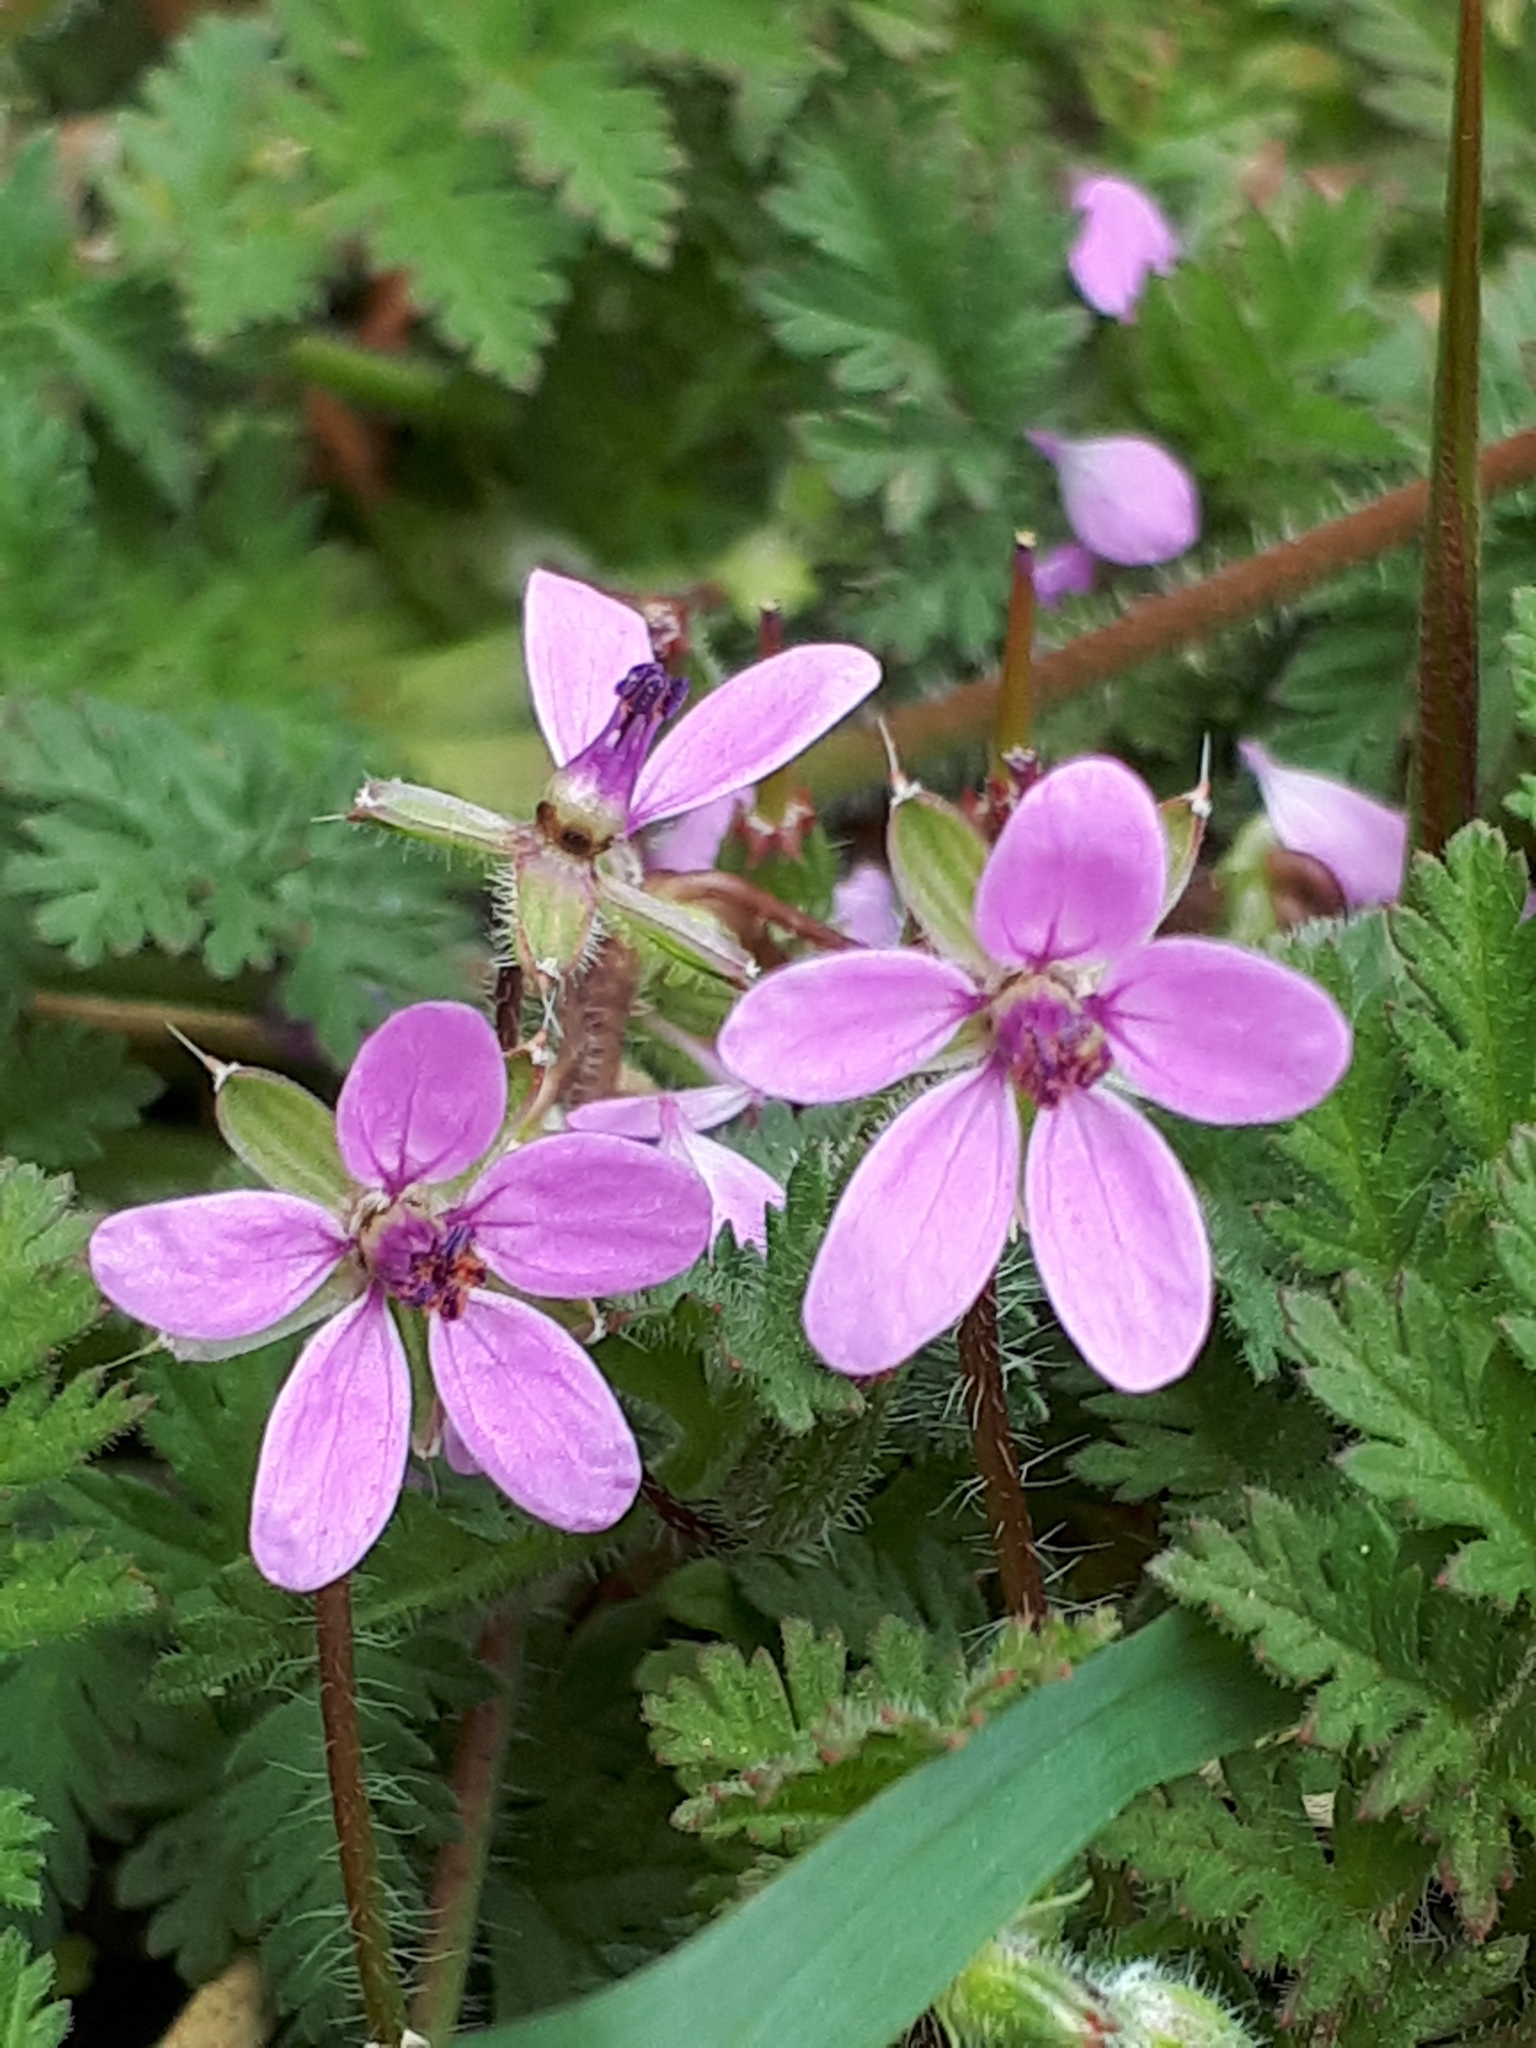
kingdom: Plantae
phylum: Tracheophyta
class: Magnoliopsida
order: Geraniales
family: Geraniaceae
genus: Erodium
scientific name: Erodium cicutarium
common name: Common stork's-bill
